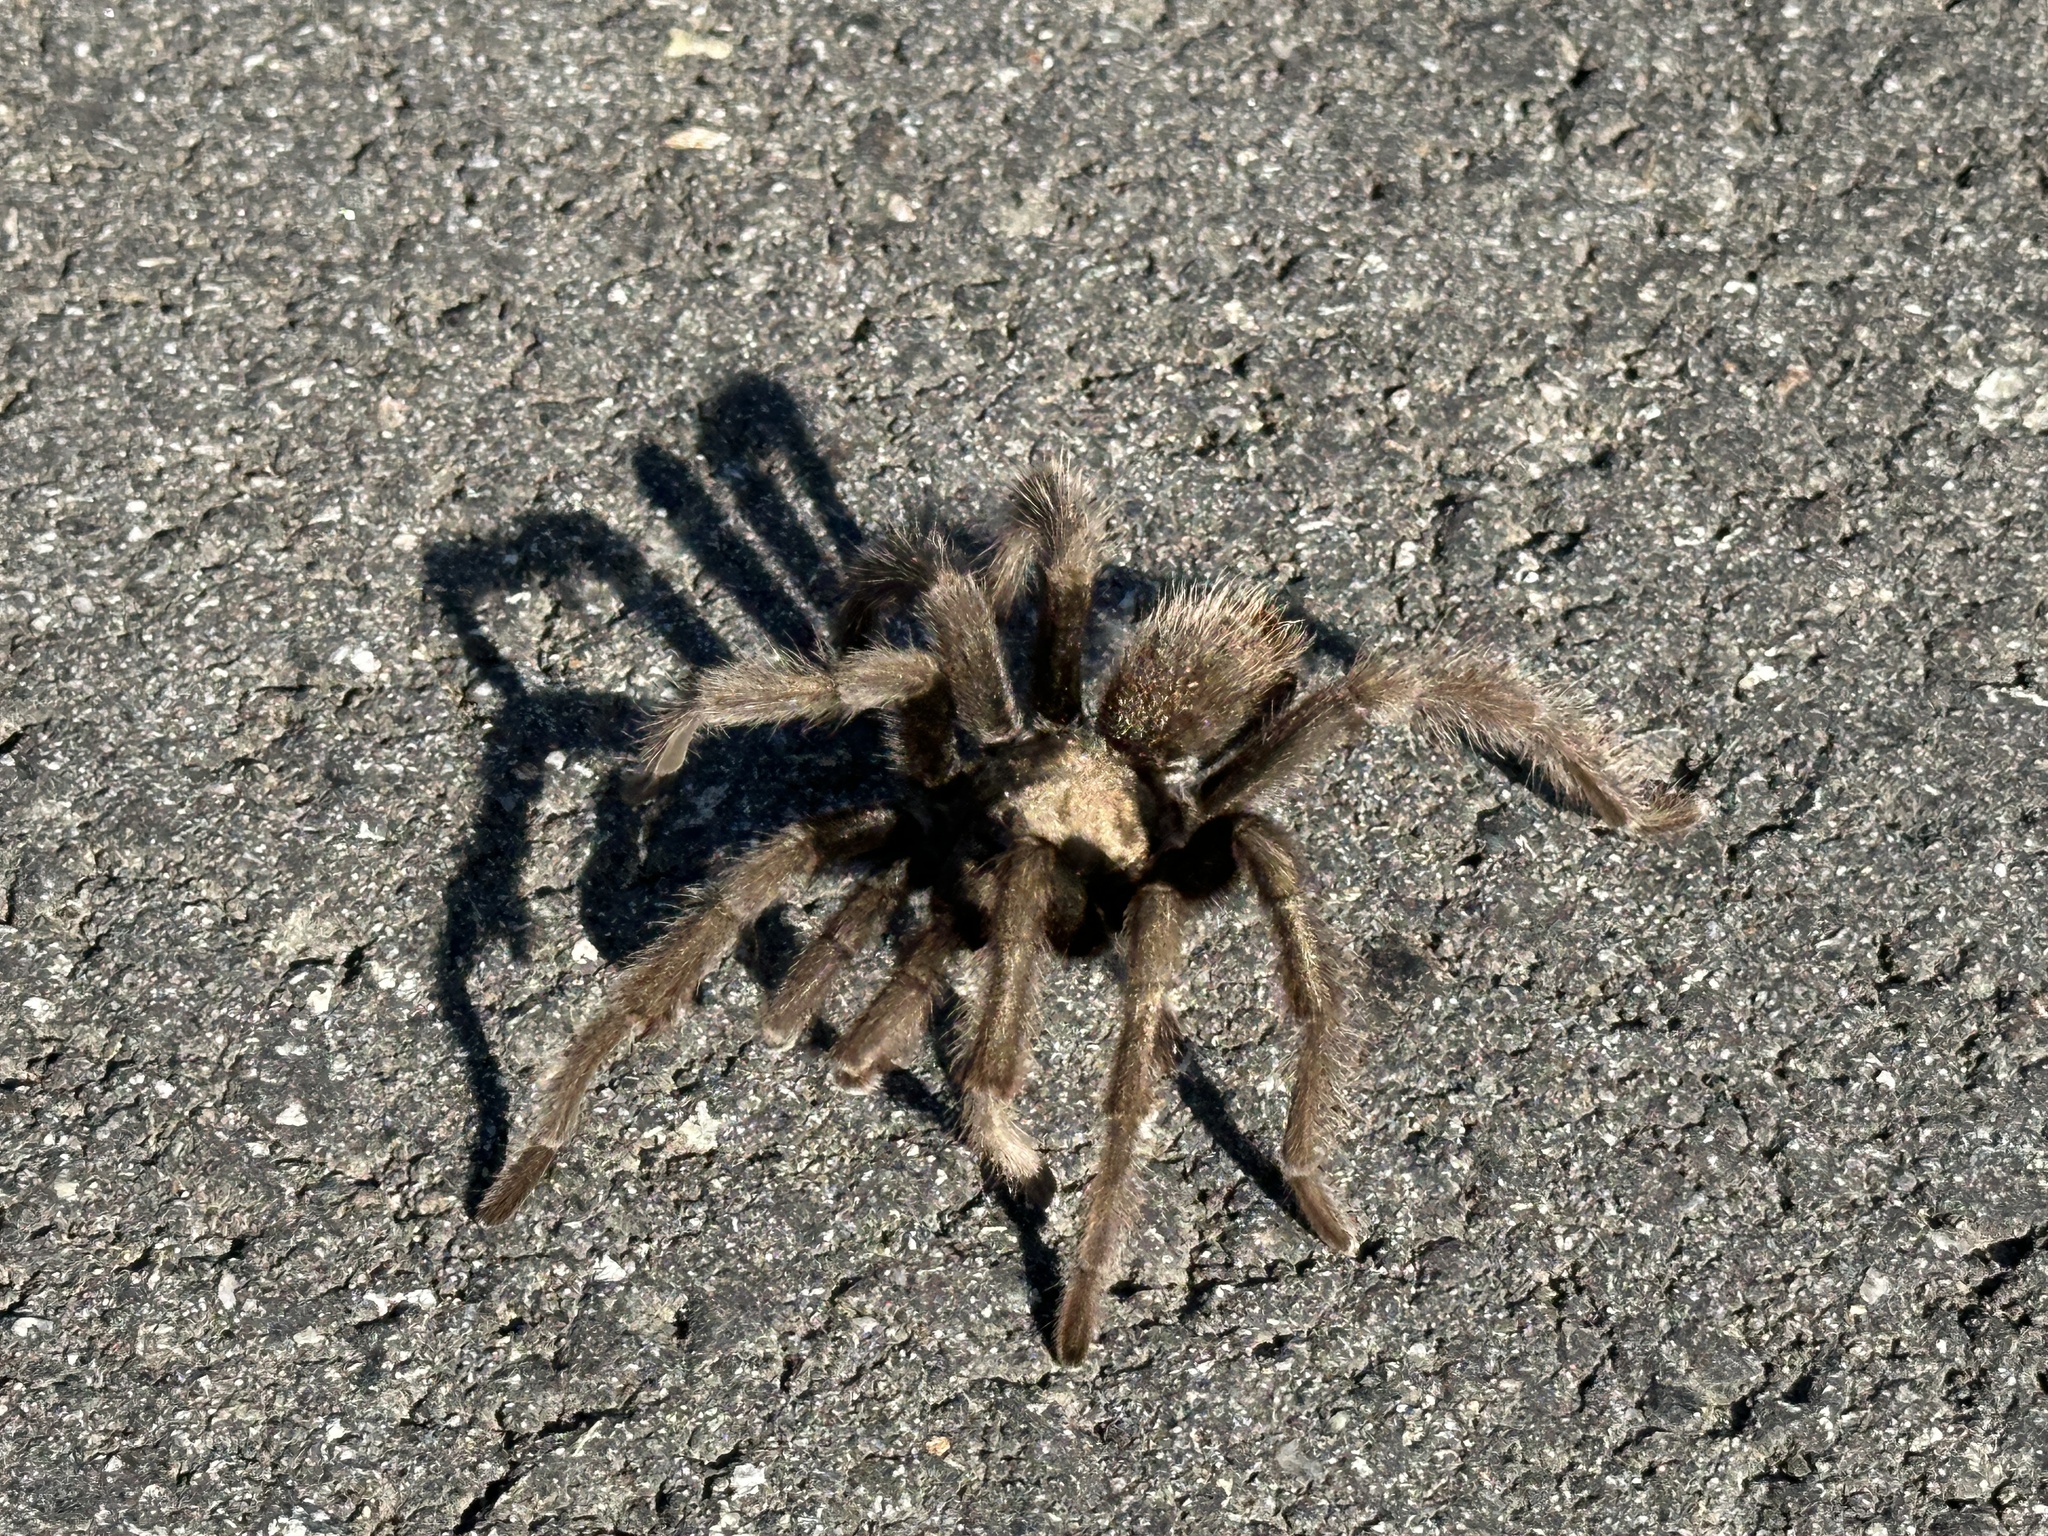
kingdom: Animalia
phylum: Arthropoda
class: Arachnida
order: Araneae
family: Theraphosidae
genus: Aphonopelma
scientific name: Aphonopelma eutylenum
